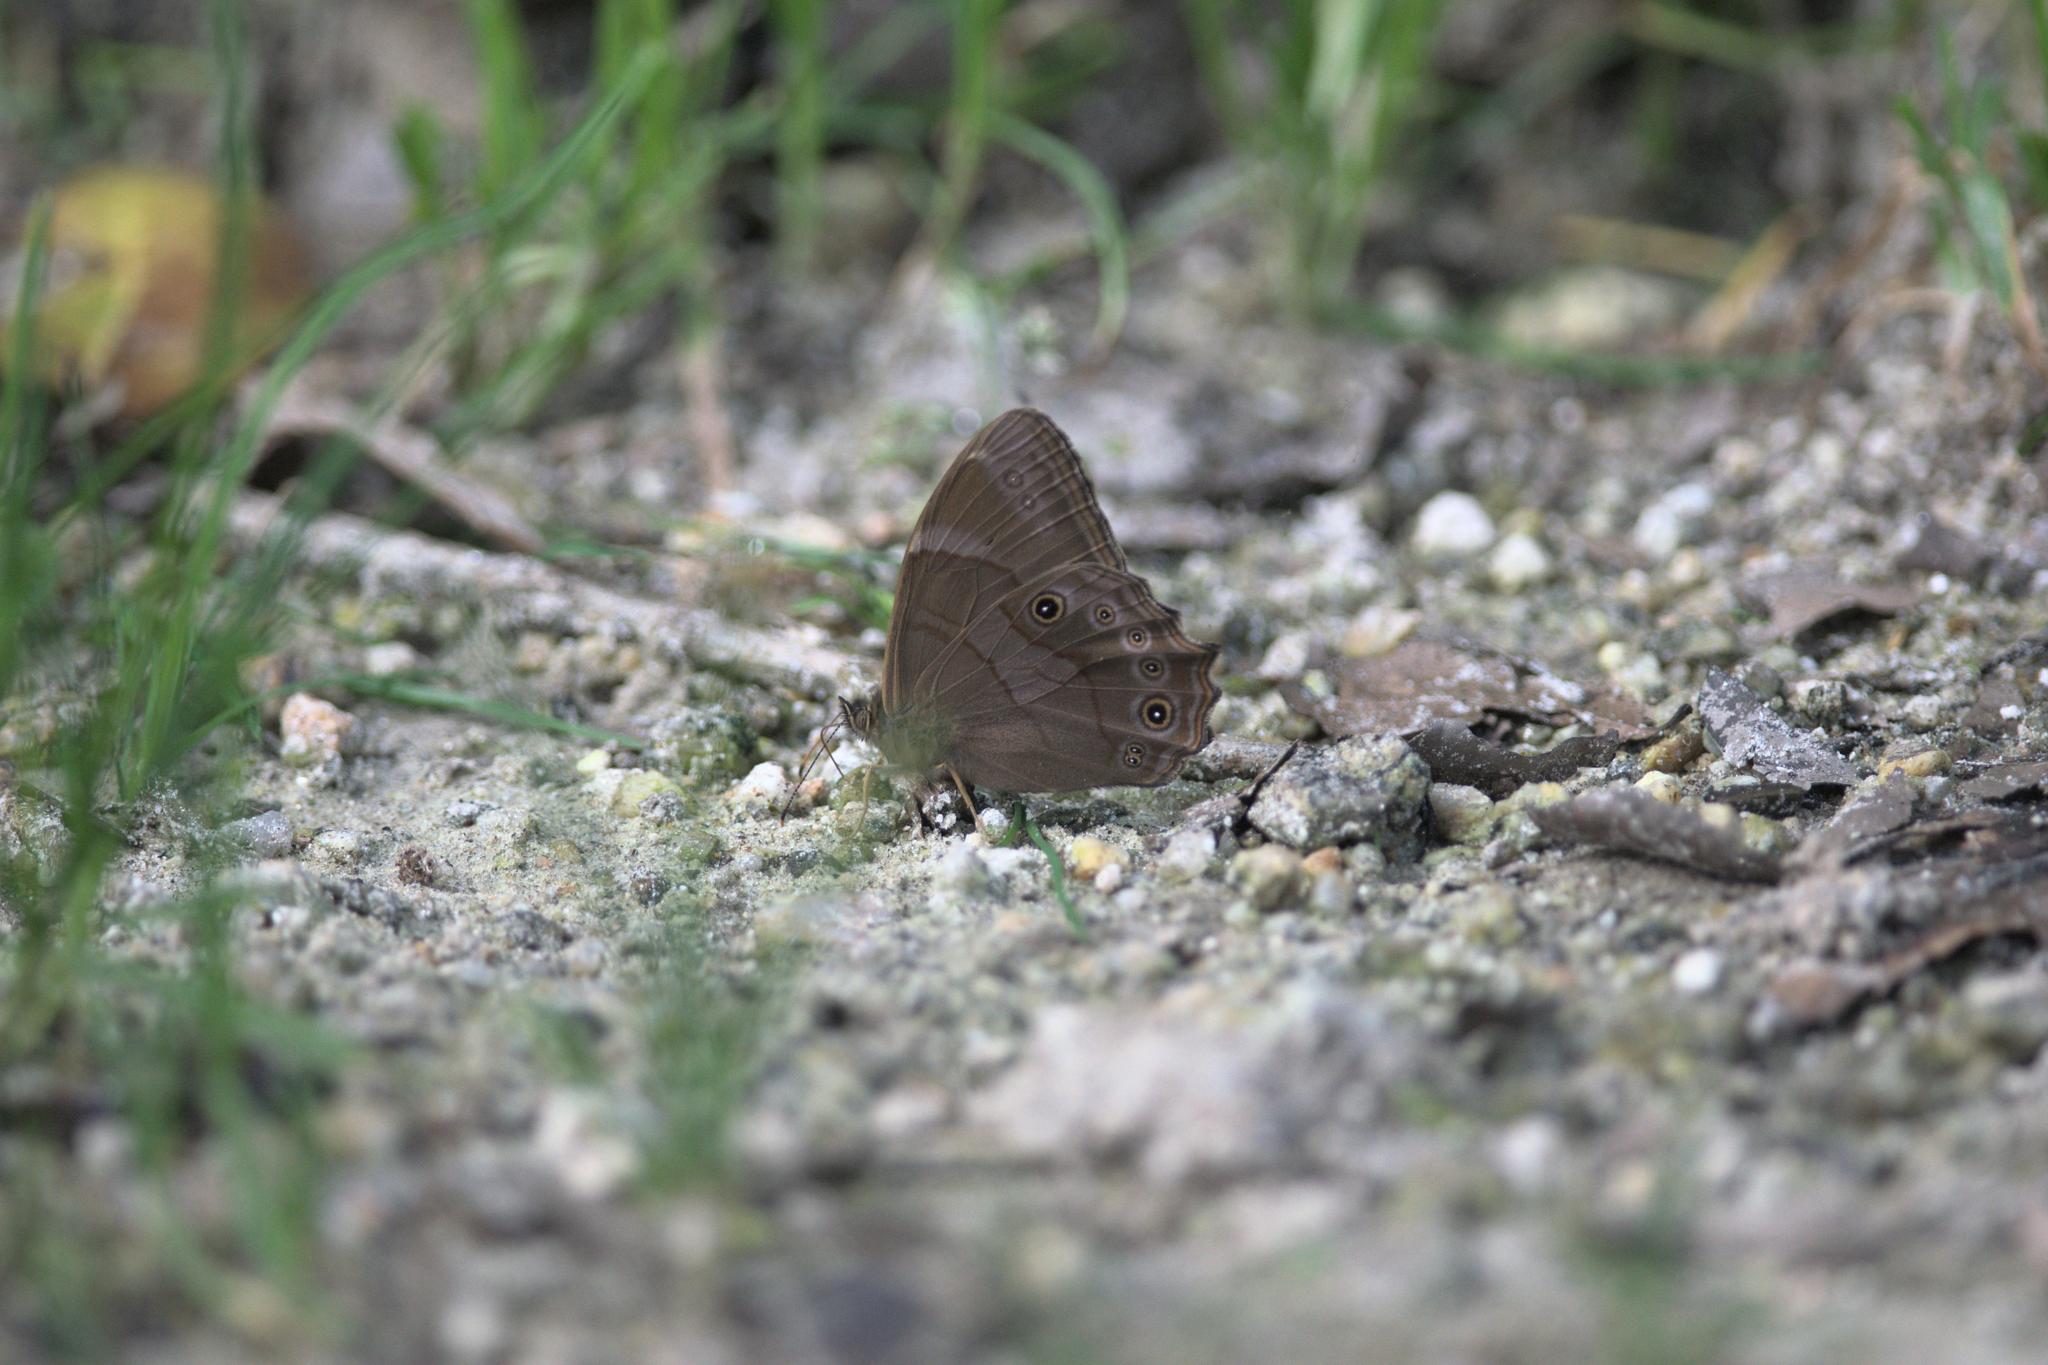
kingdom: Animalia
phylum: Arthropoda
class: Insecta
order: Lepidoptera
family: Nymphalidae
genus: Lethe
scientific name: Lethe
